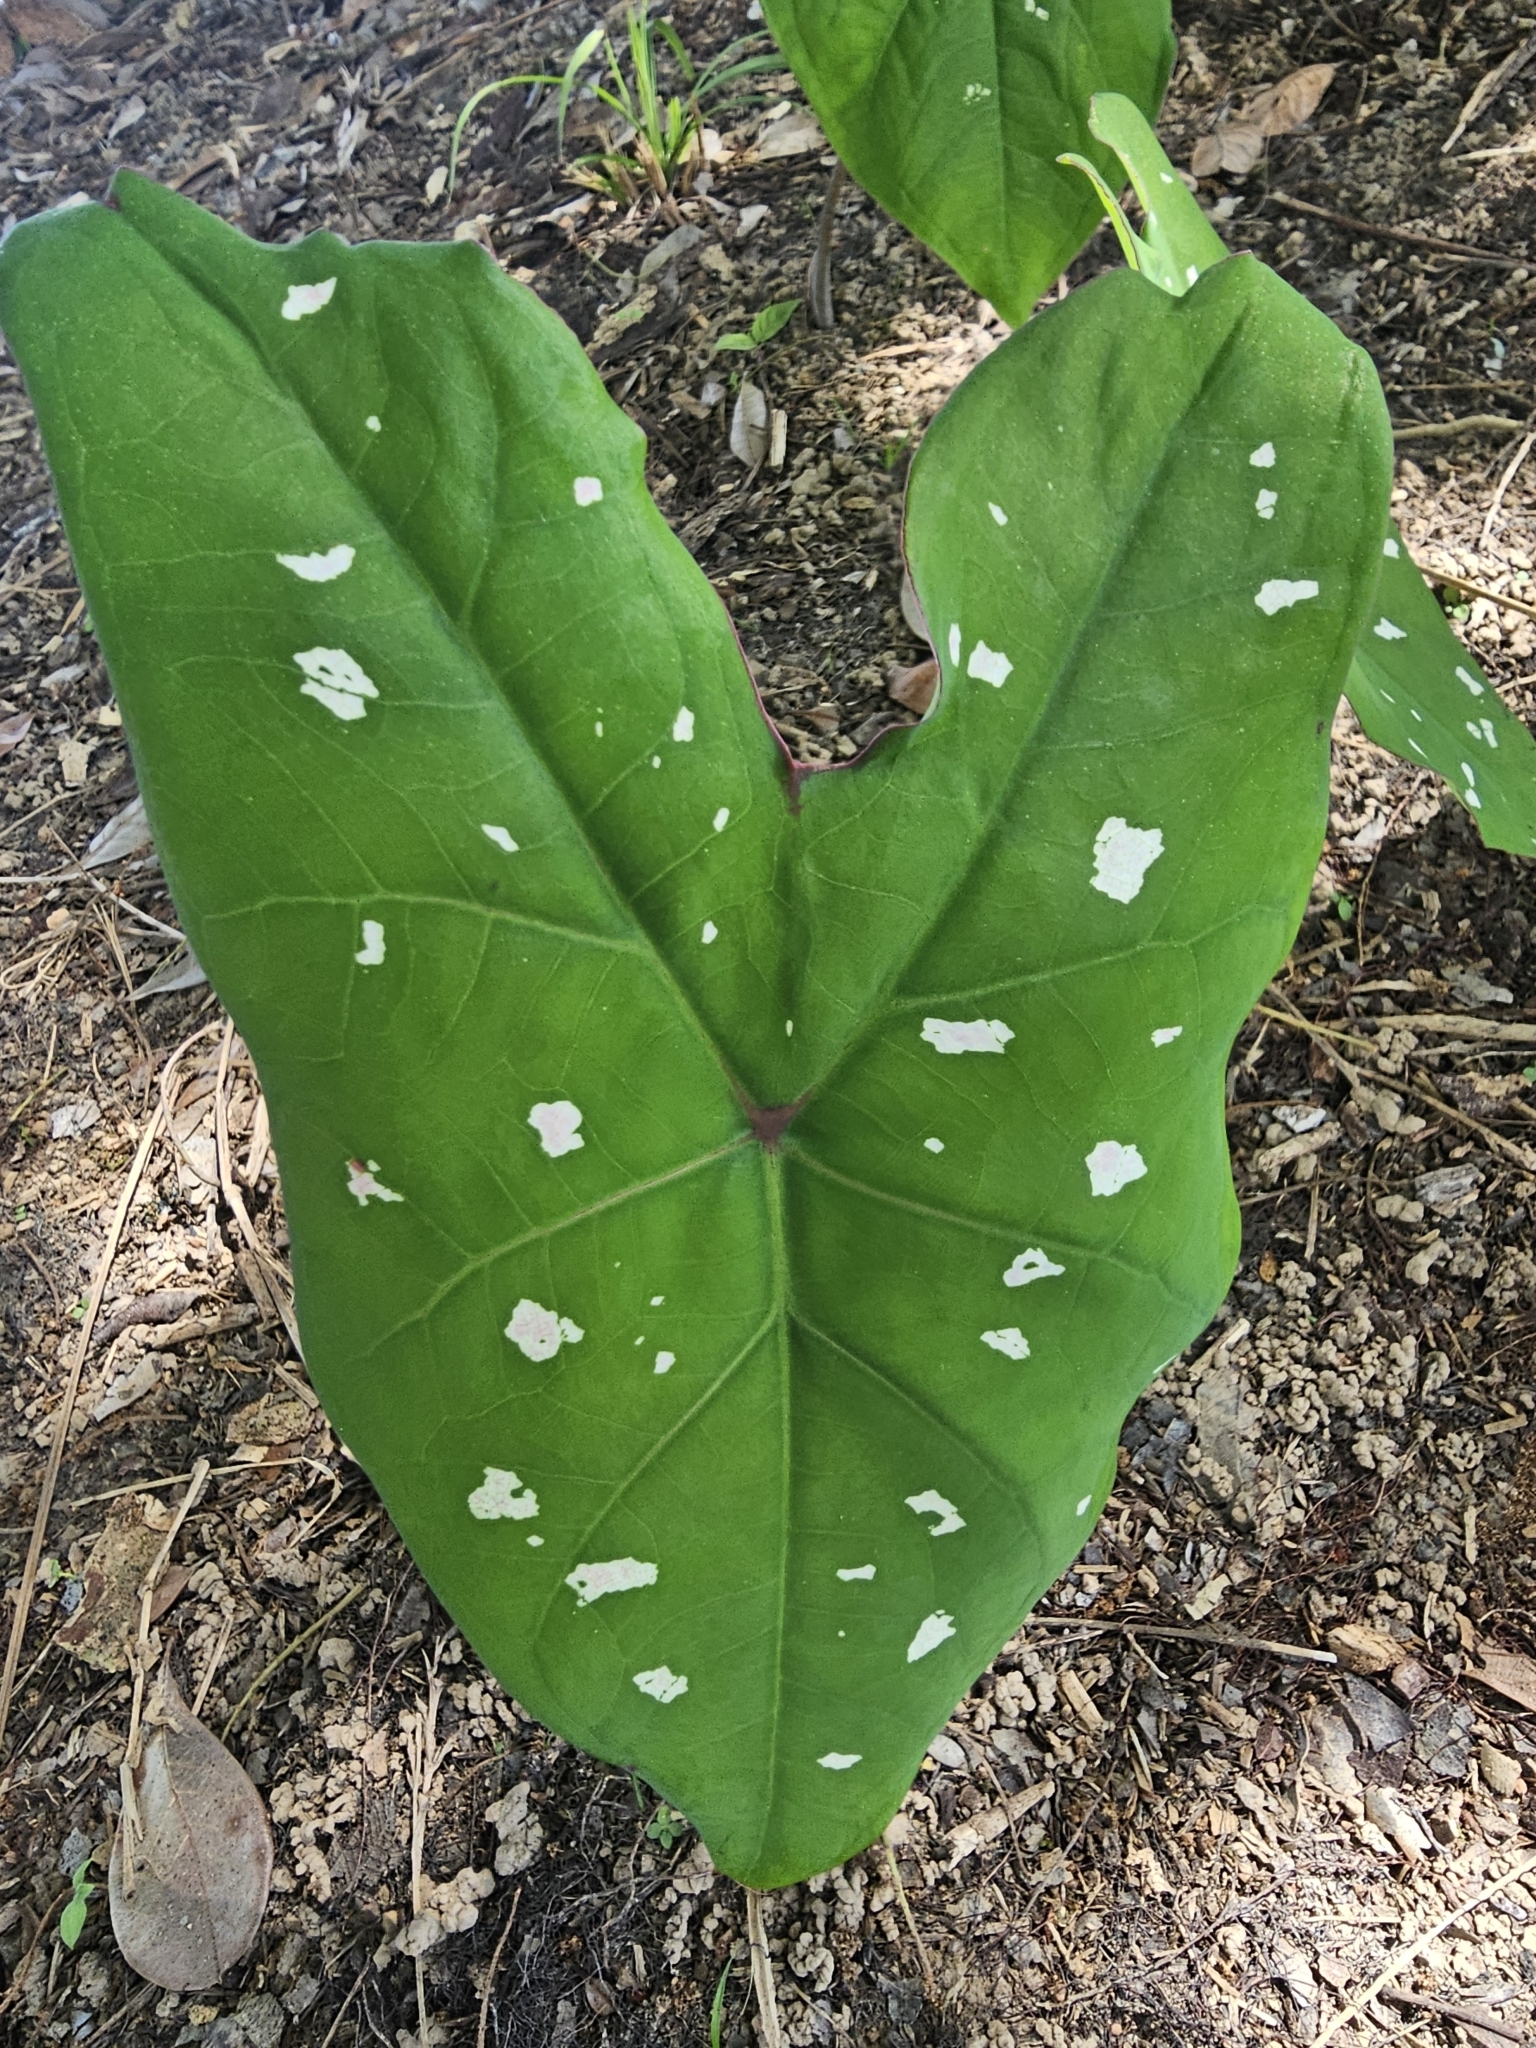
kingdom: Plantae
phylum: Tracheophyta
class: Liliopsida
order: Alismatales
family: Araceae
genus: Caladium
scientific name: Caladium bicolor
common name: Artist's pallet
